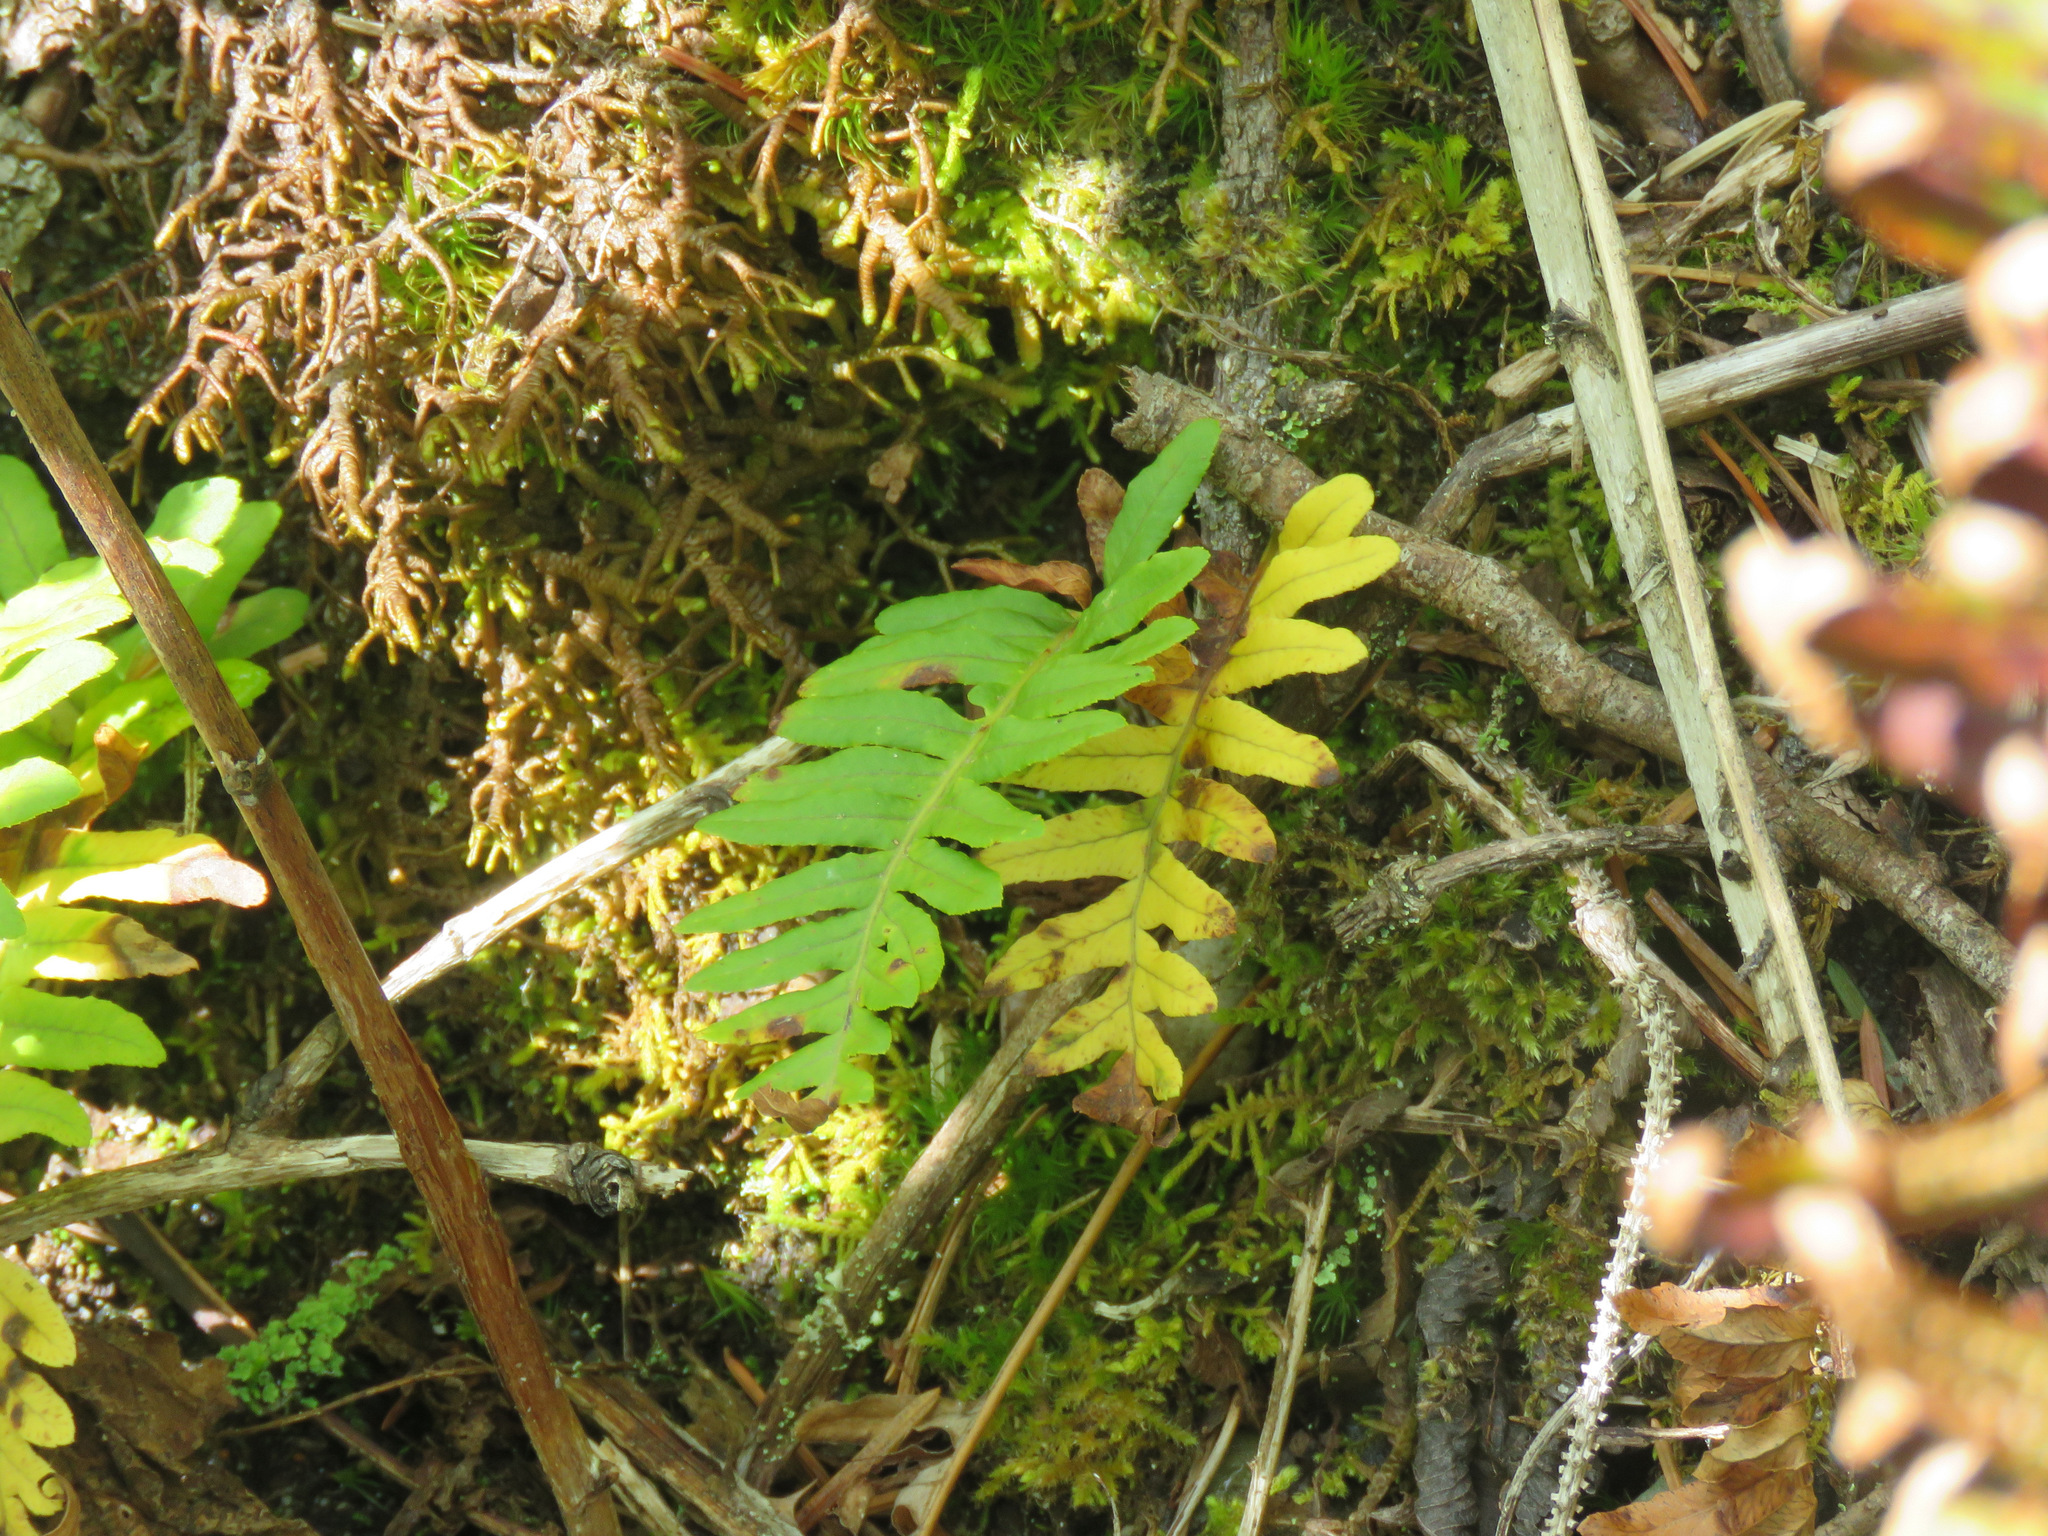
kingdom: Plantae
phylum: Tracheophyta
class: Polypodiopsida
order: Polypodiales
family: Polypodiaceae
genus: Polypodium
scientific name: Polypodium glycyrrhiza
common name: Licorice fern
